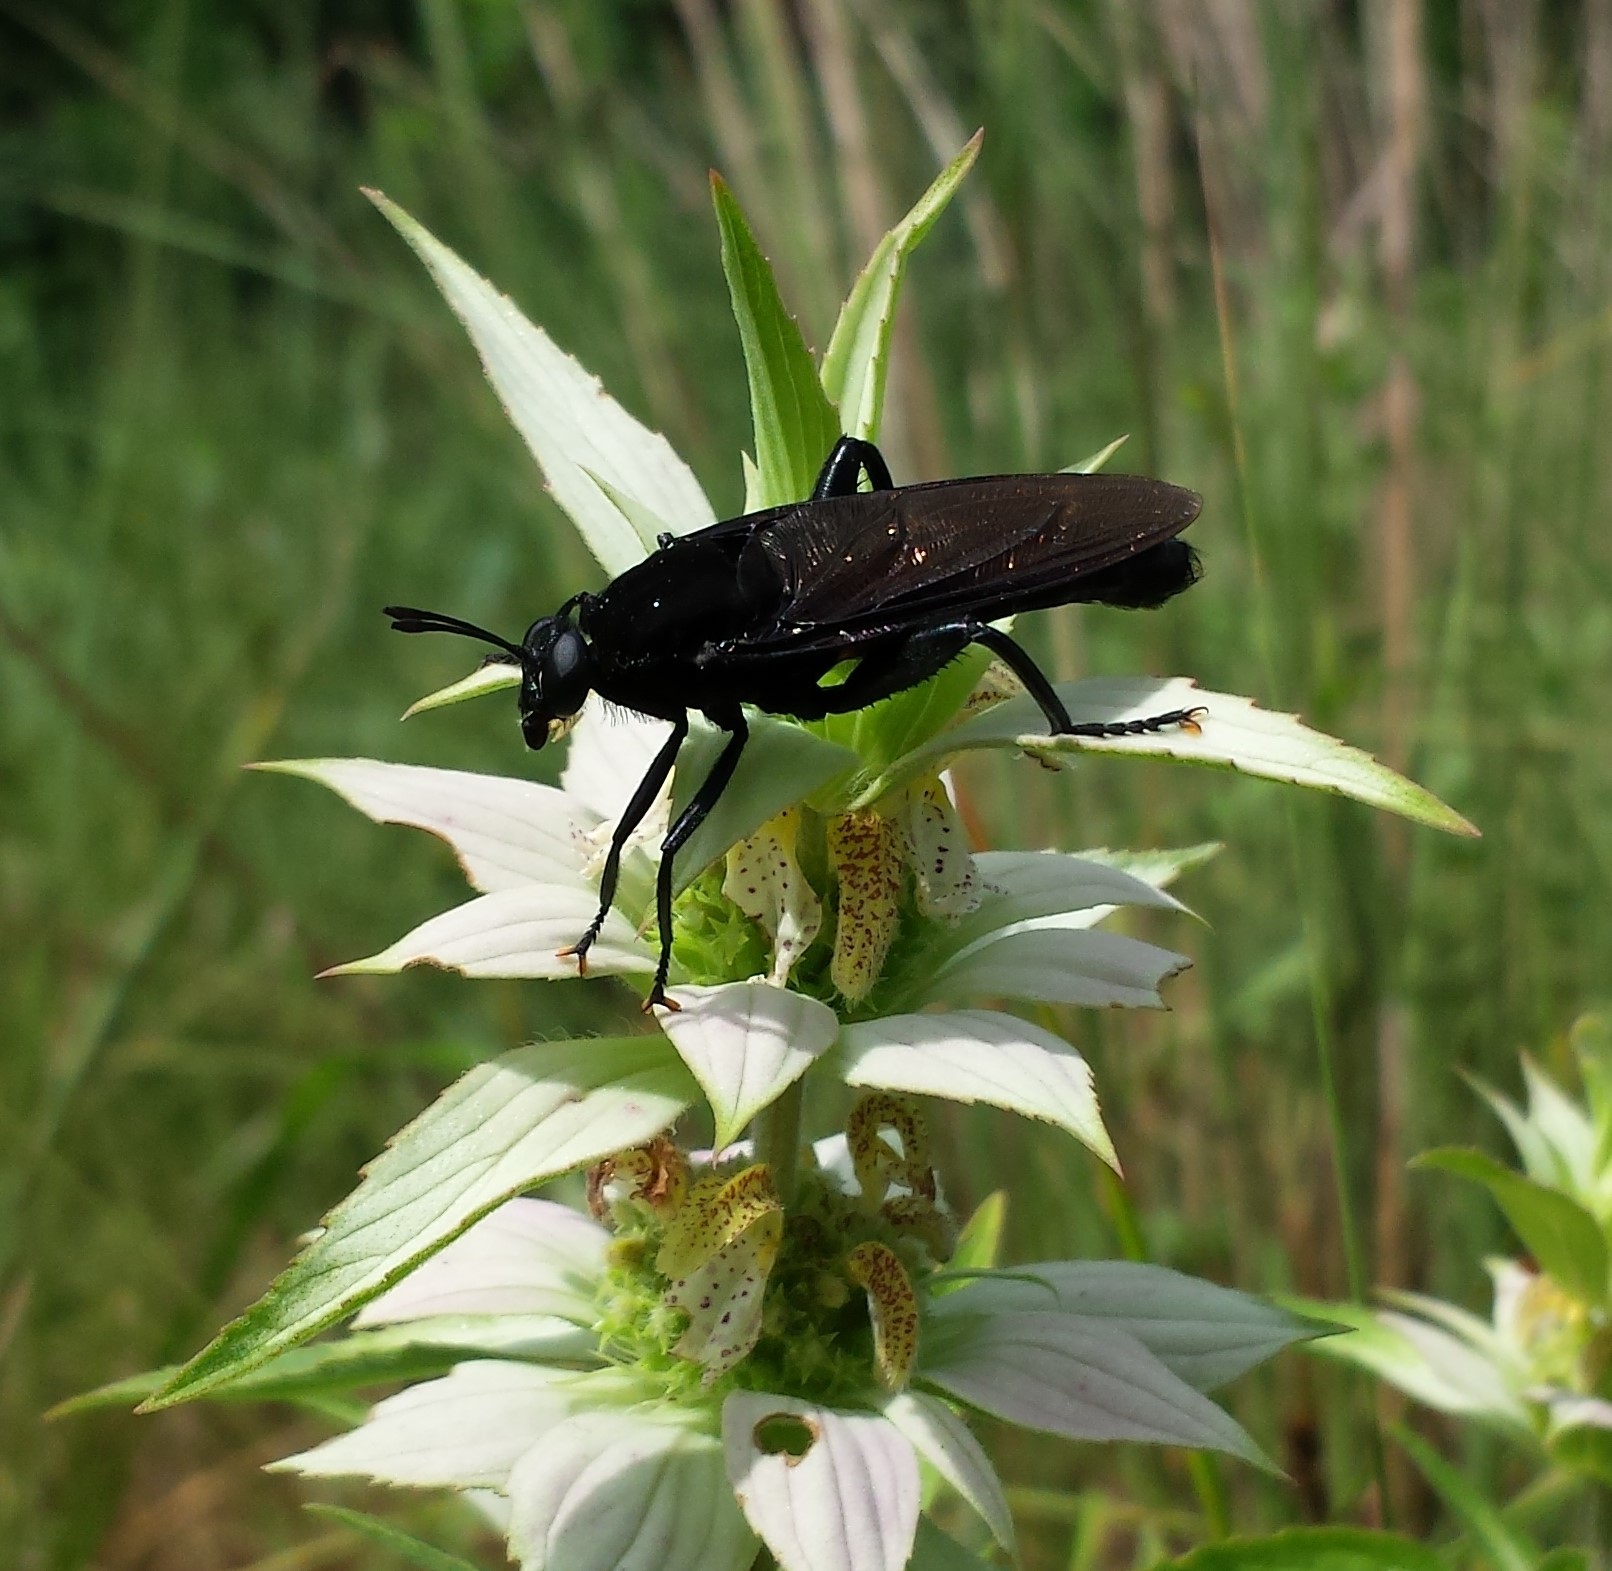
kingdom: Plantae
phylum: Tracheophyta
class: Magnoliopsida
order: Lamiales
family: Lamiaceae
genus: Monarda
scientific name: Monarda punctata
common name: Dotted monarda
